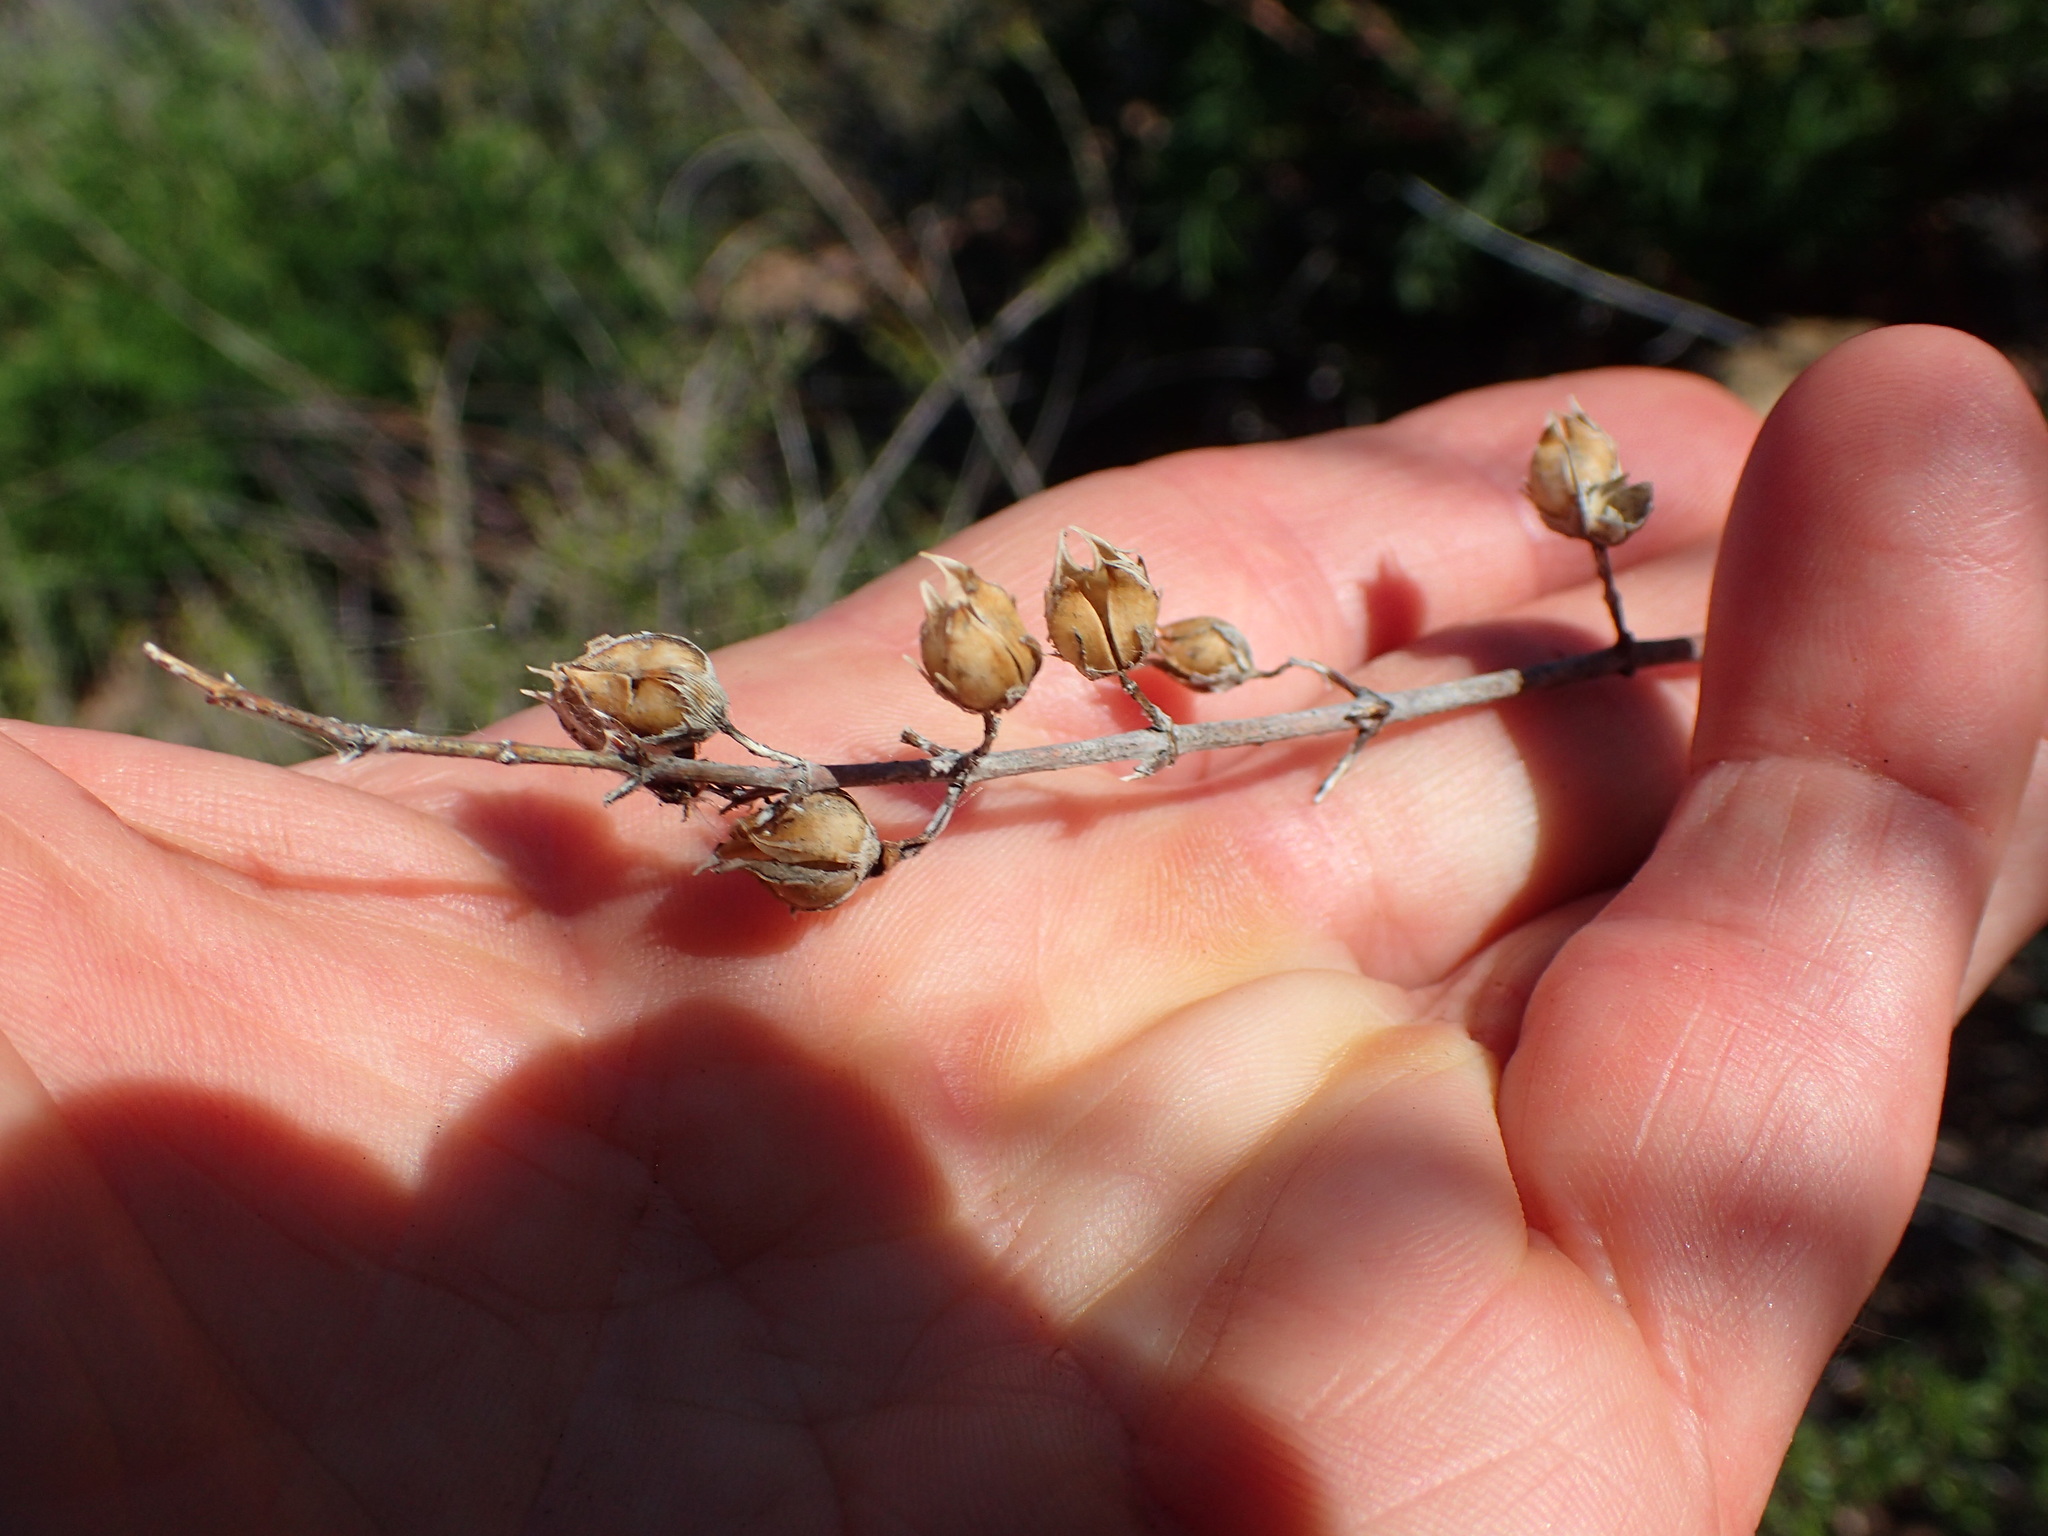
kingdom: Plantae
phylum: Tracheophyta
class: Magnoliopsida
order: Lamiales
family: Plantaginaceae
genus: Keckiella
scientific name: Keckiella ternata
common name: Scarlet keckiella
